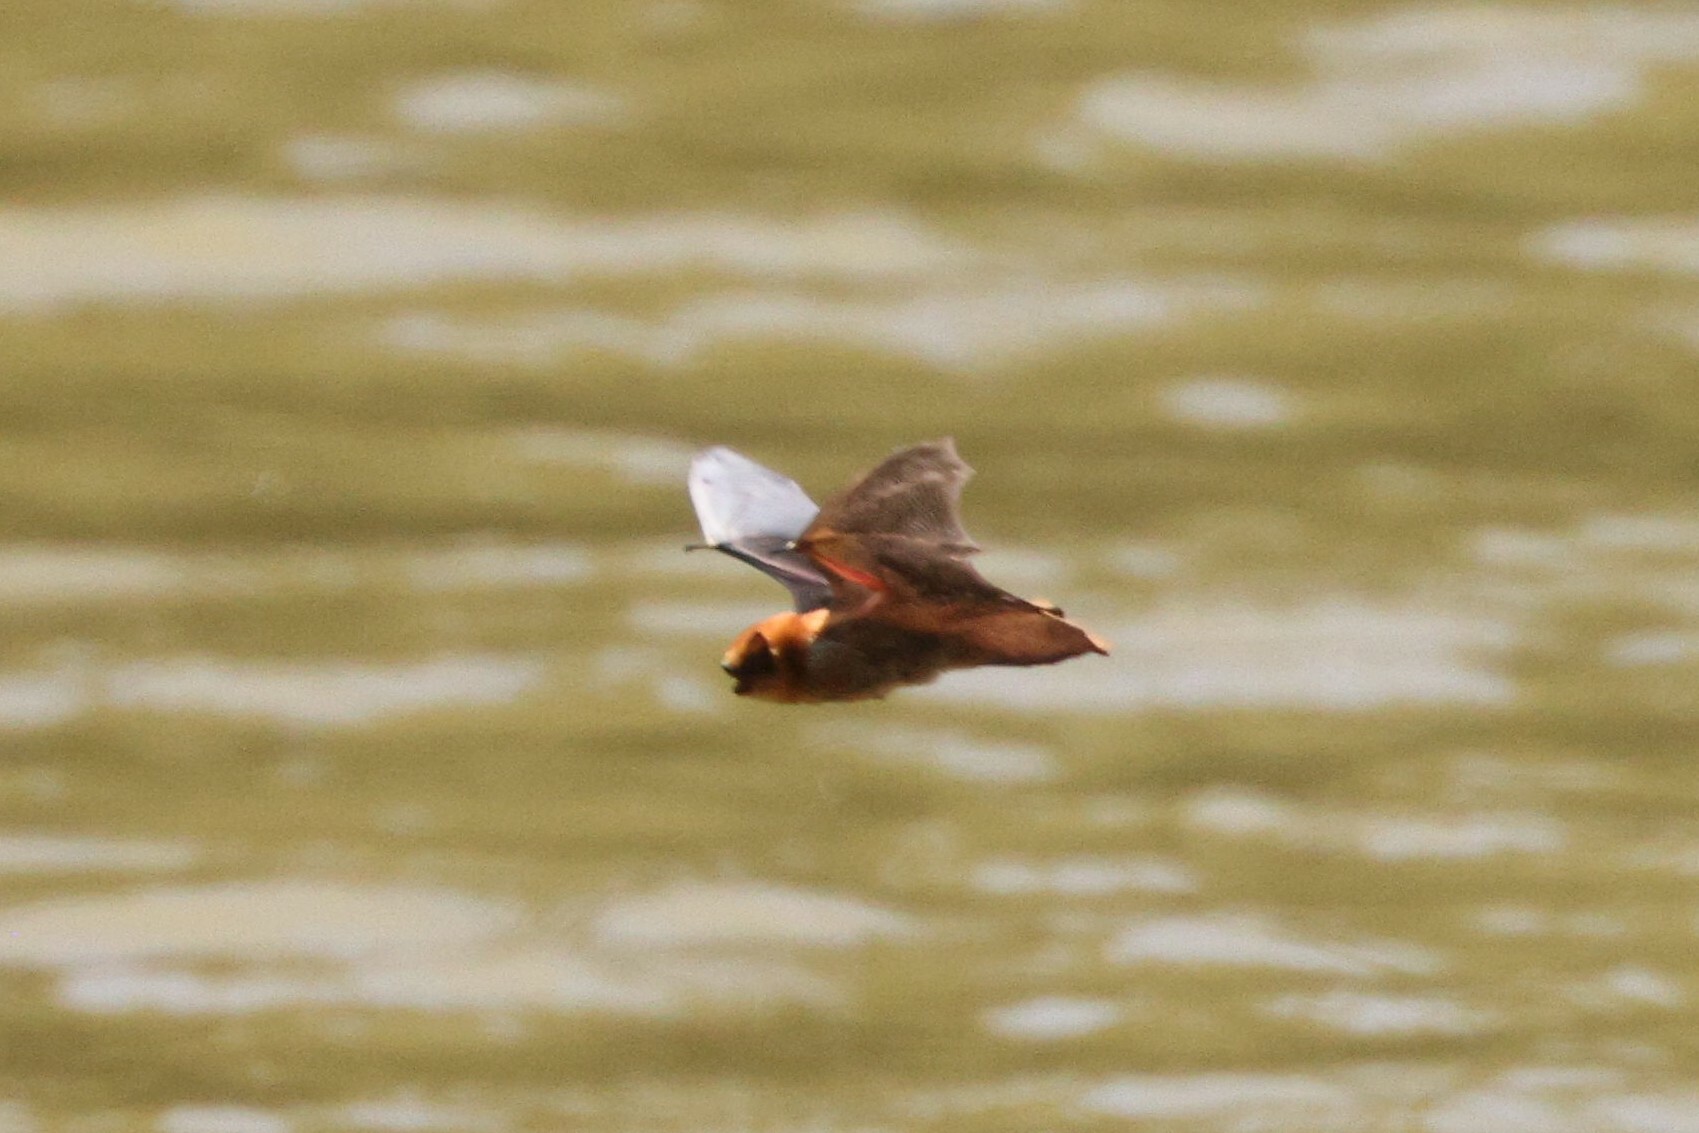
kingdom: Animalia
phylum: Chordata
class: Mammalia
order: Chiroptera
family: Vespertilionidae
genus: Lasiurus
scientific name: Lasiurus varius
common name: Cinnamon red bat
